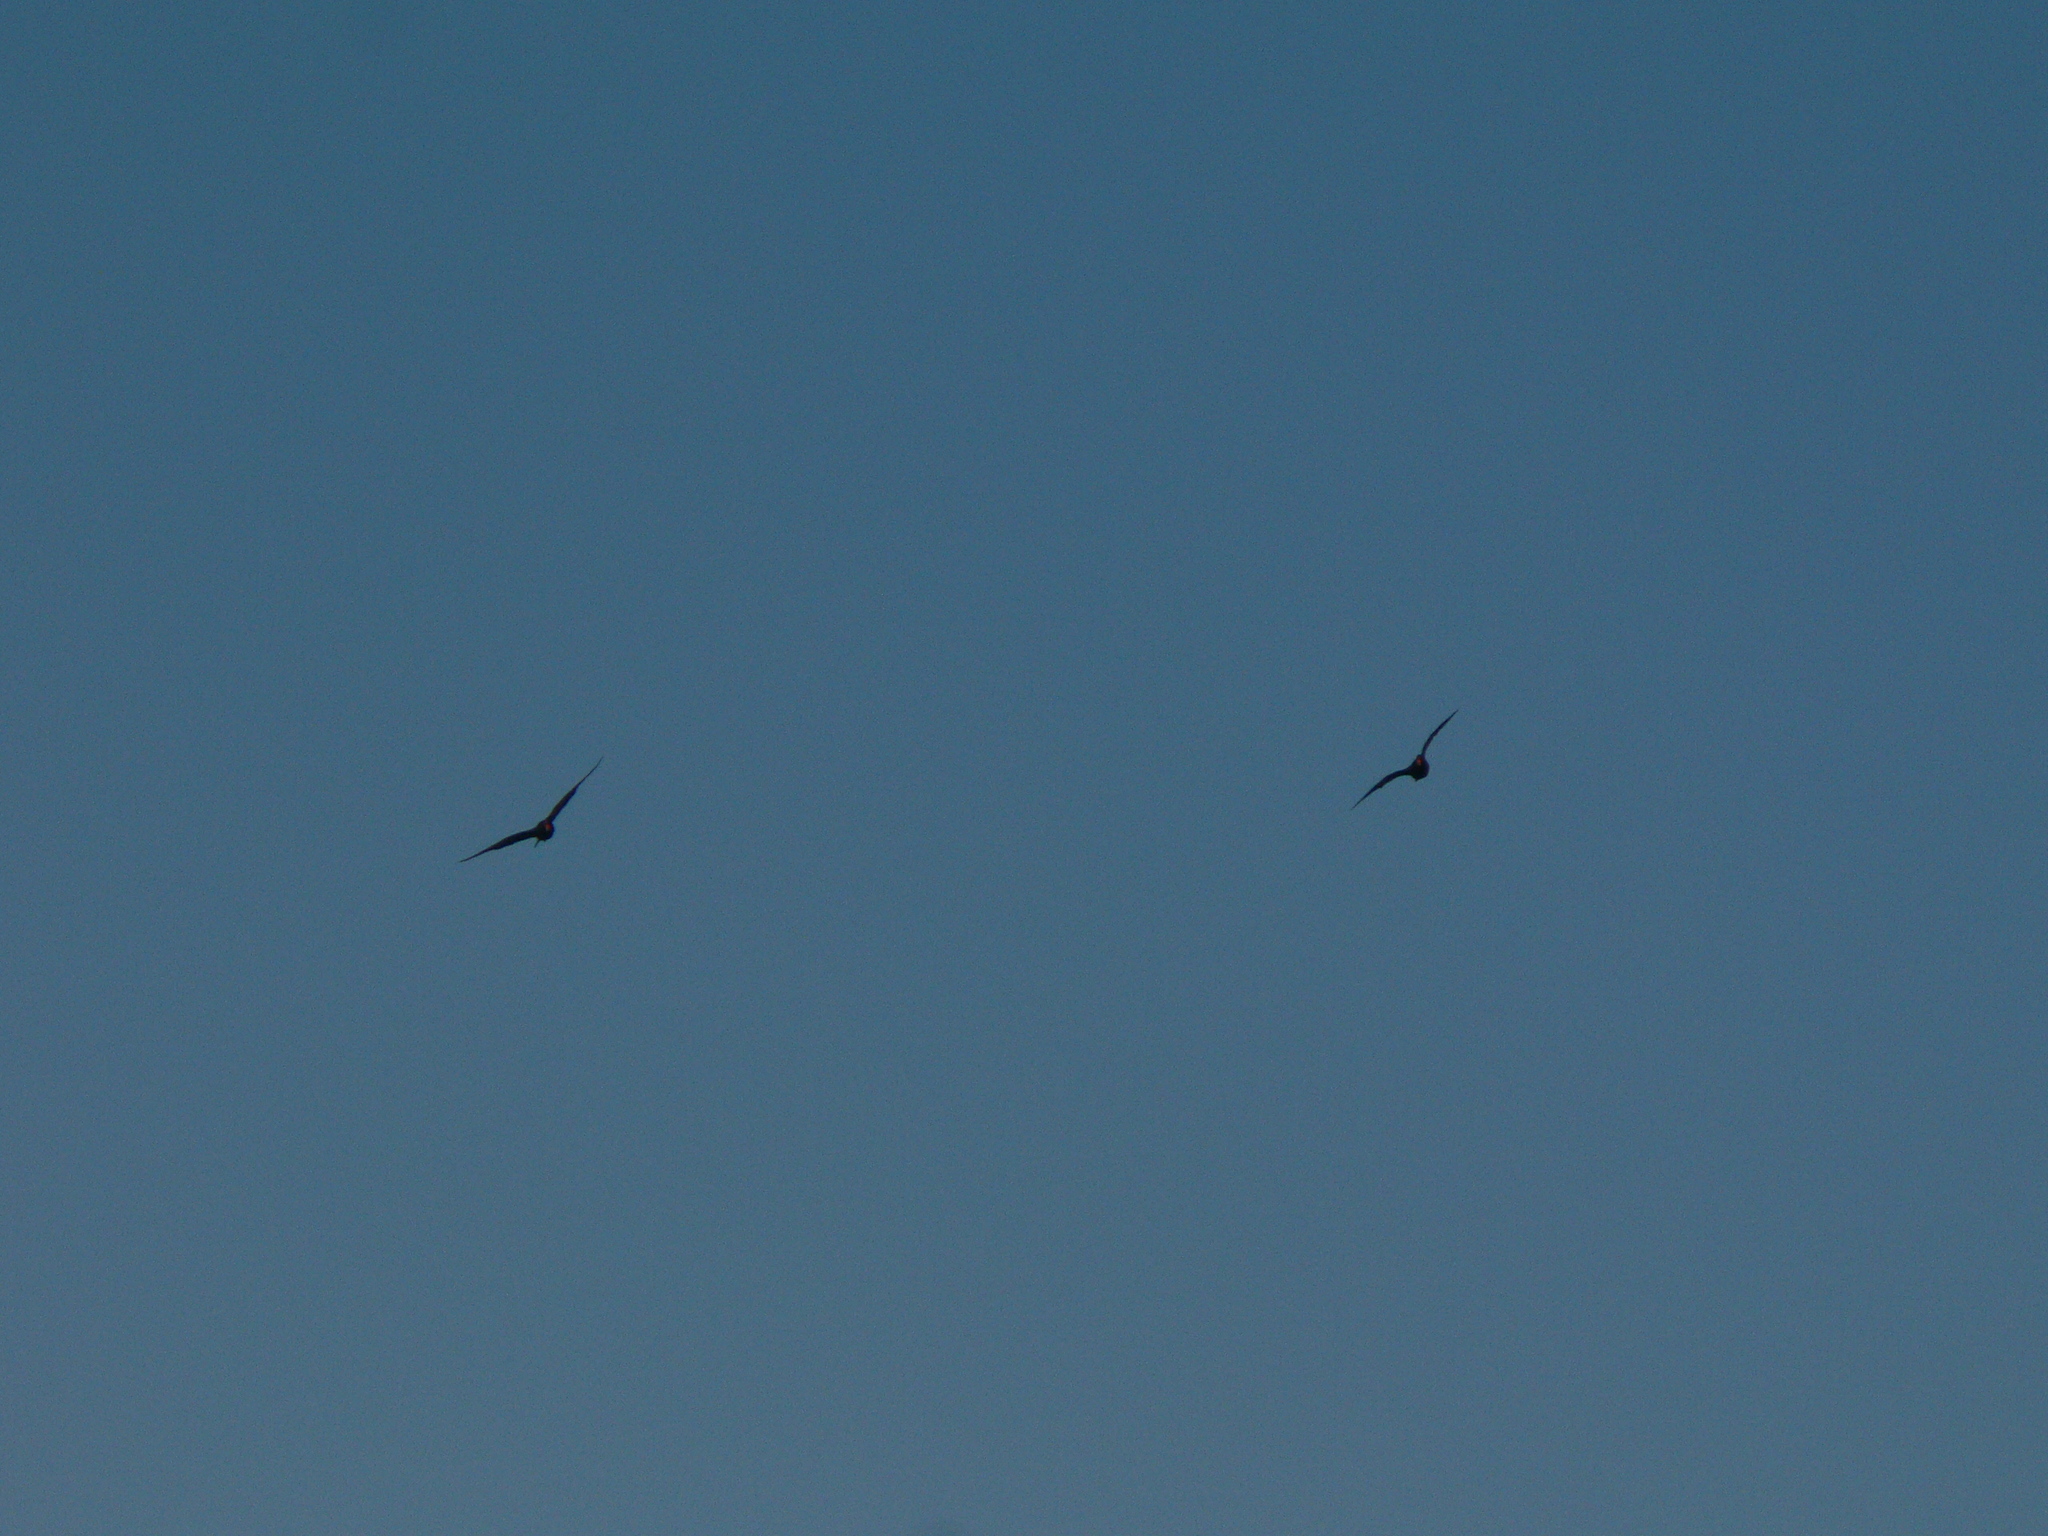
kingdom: Animalia
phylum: Chordata
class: Aves
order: Charadriiformes
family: Haematopodidae
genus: Haematopus
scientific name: Haematopus fuliginosus
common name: Sooty oystercatcher
